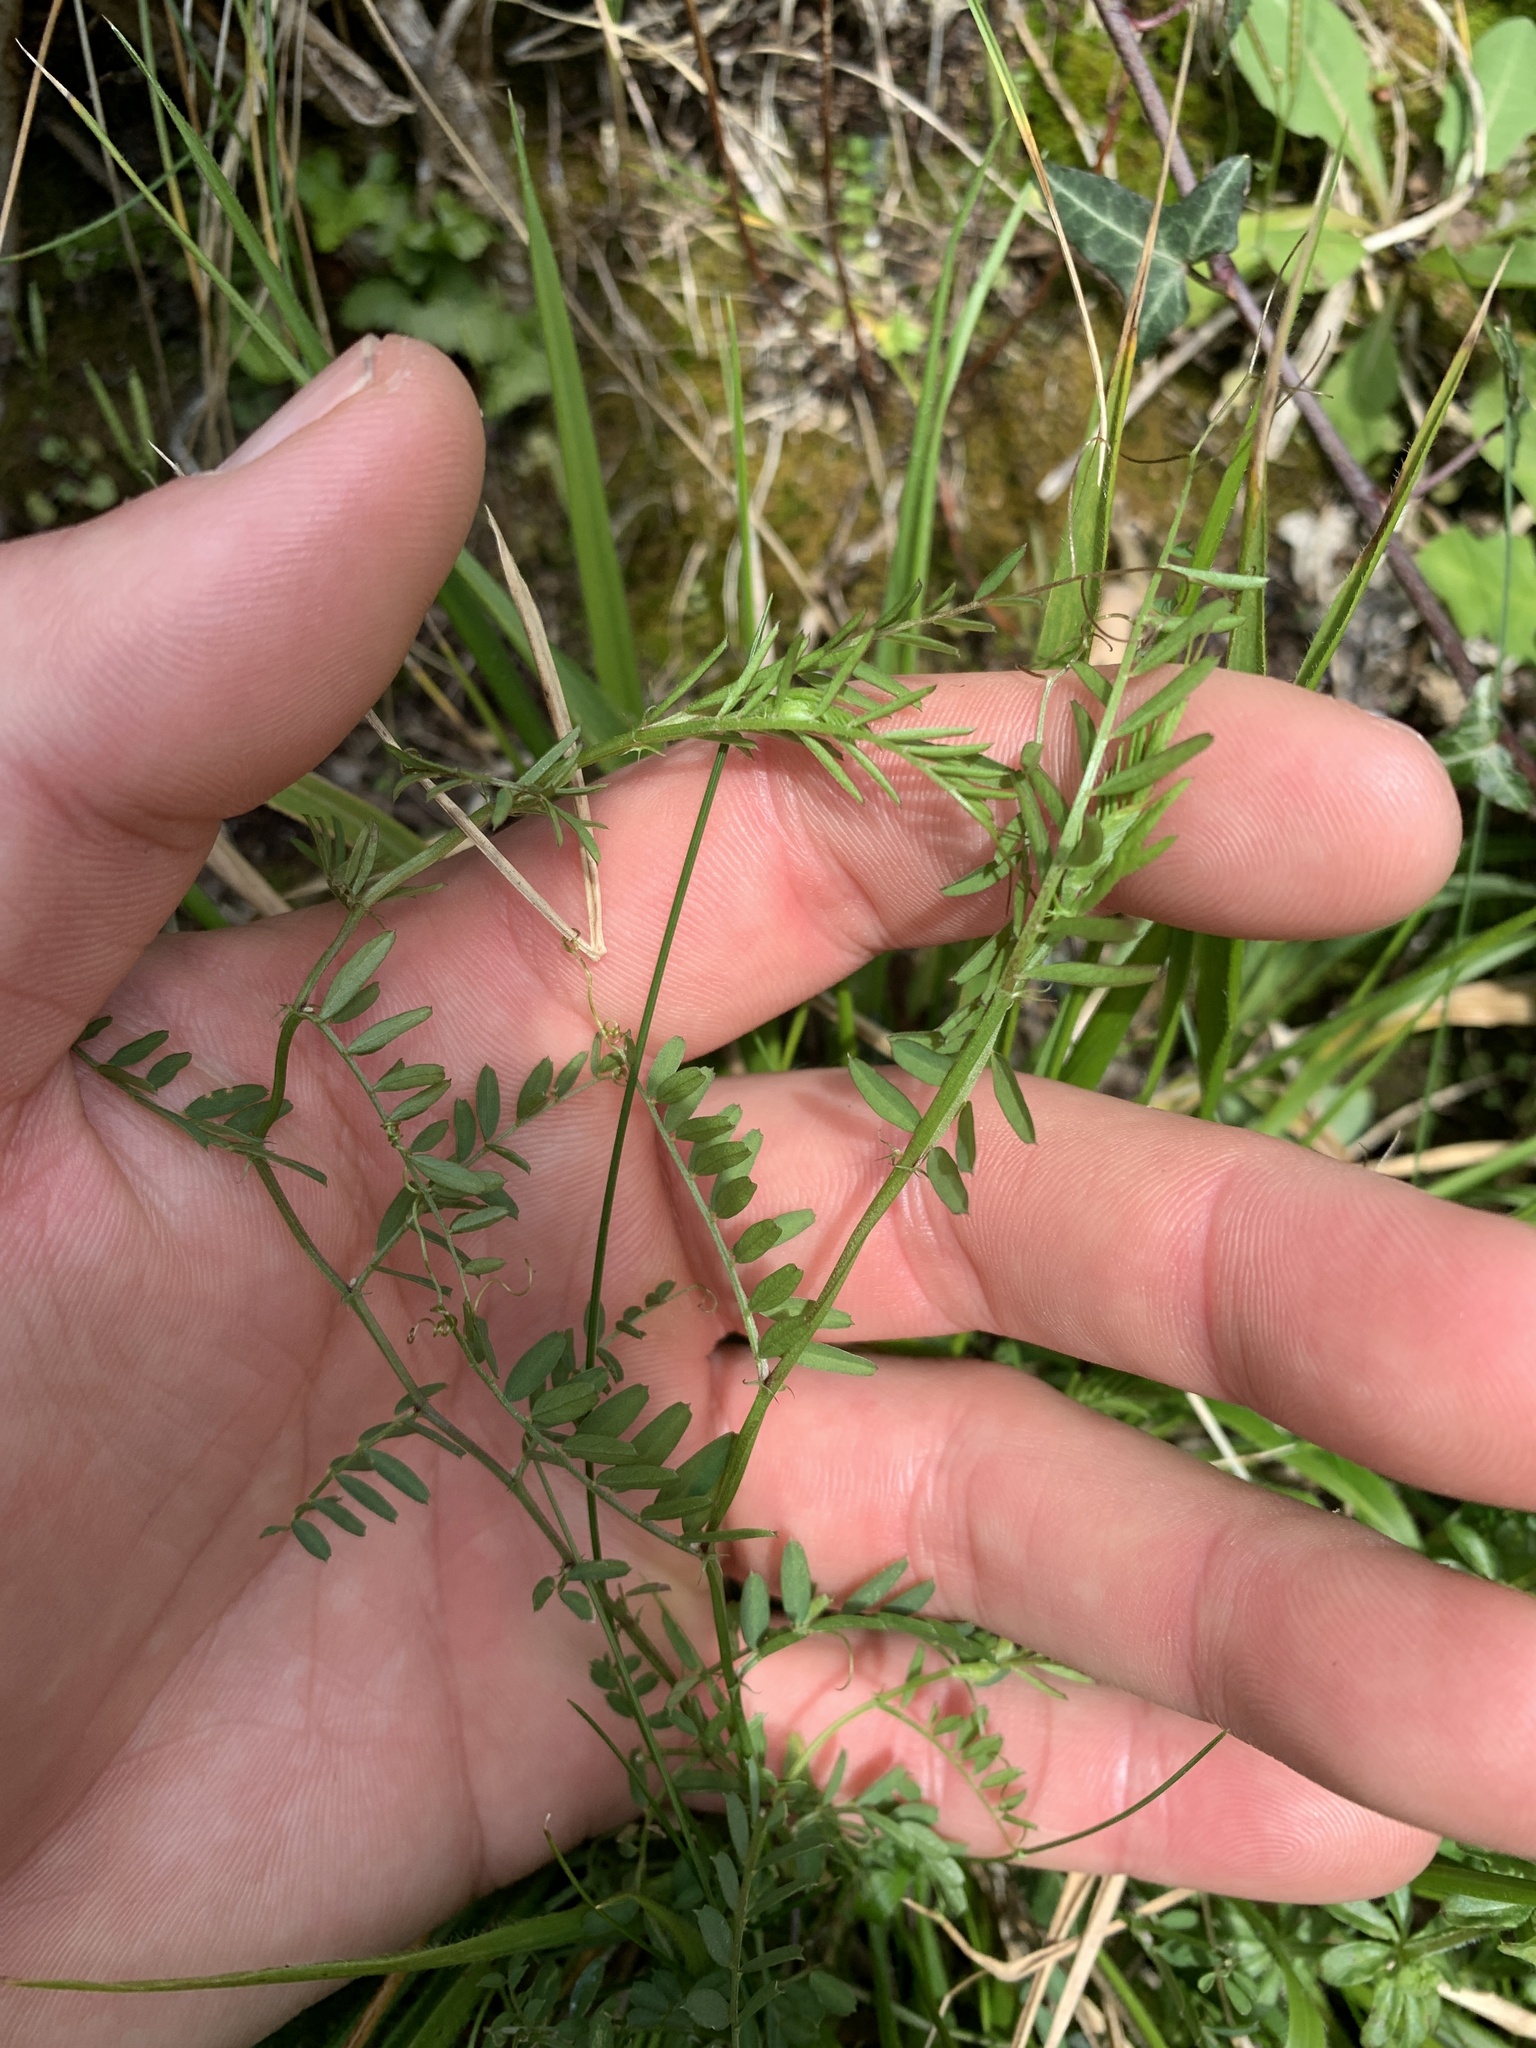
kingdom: Plantae
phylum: Tracheophyta
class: Magnoliopsida
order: Fabales
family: Fabaceae
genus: Vicia
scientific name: Vicia cracca
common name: Bird vetch
